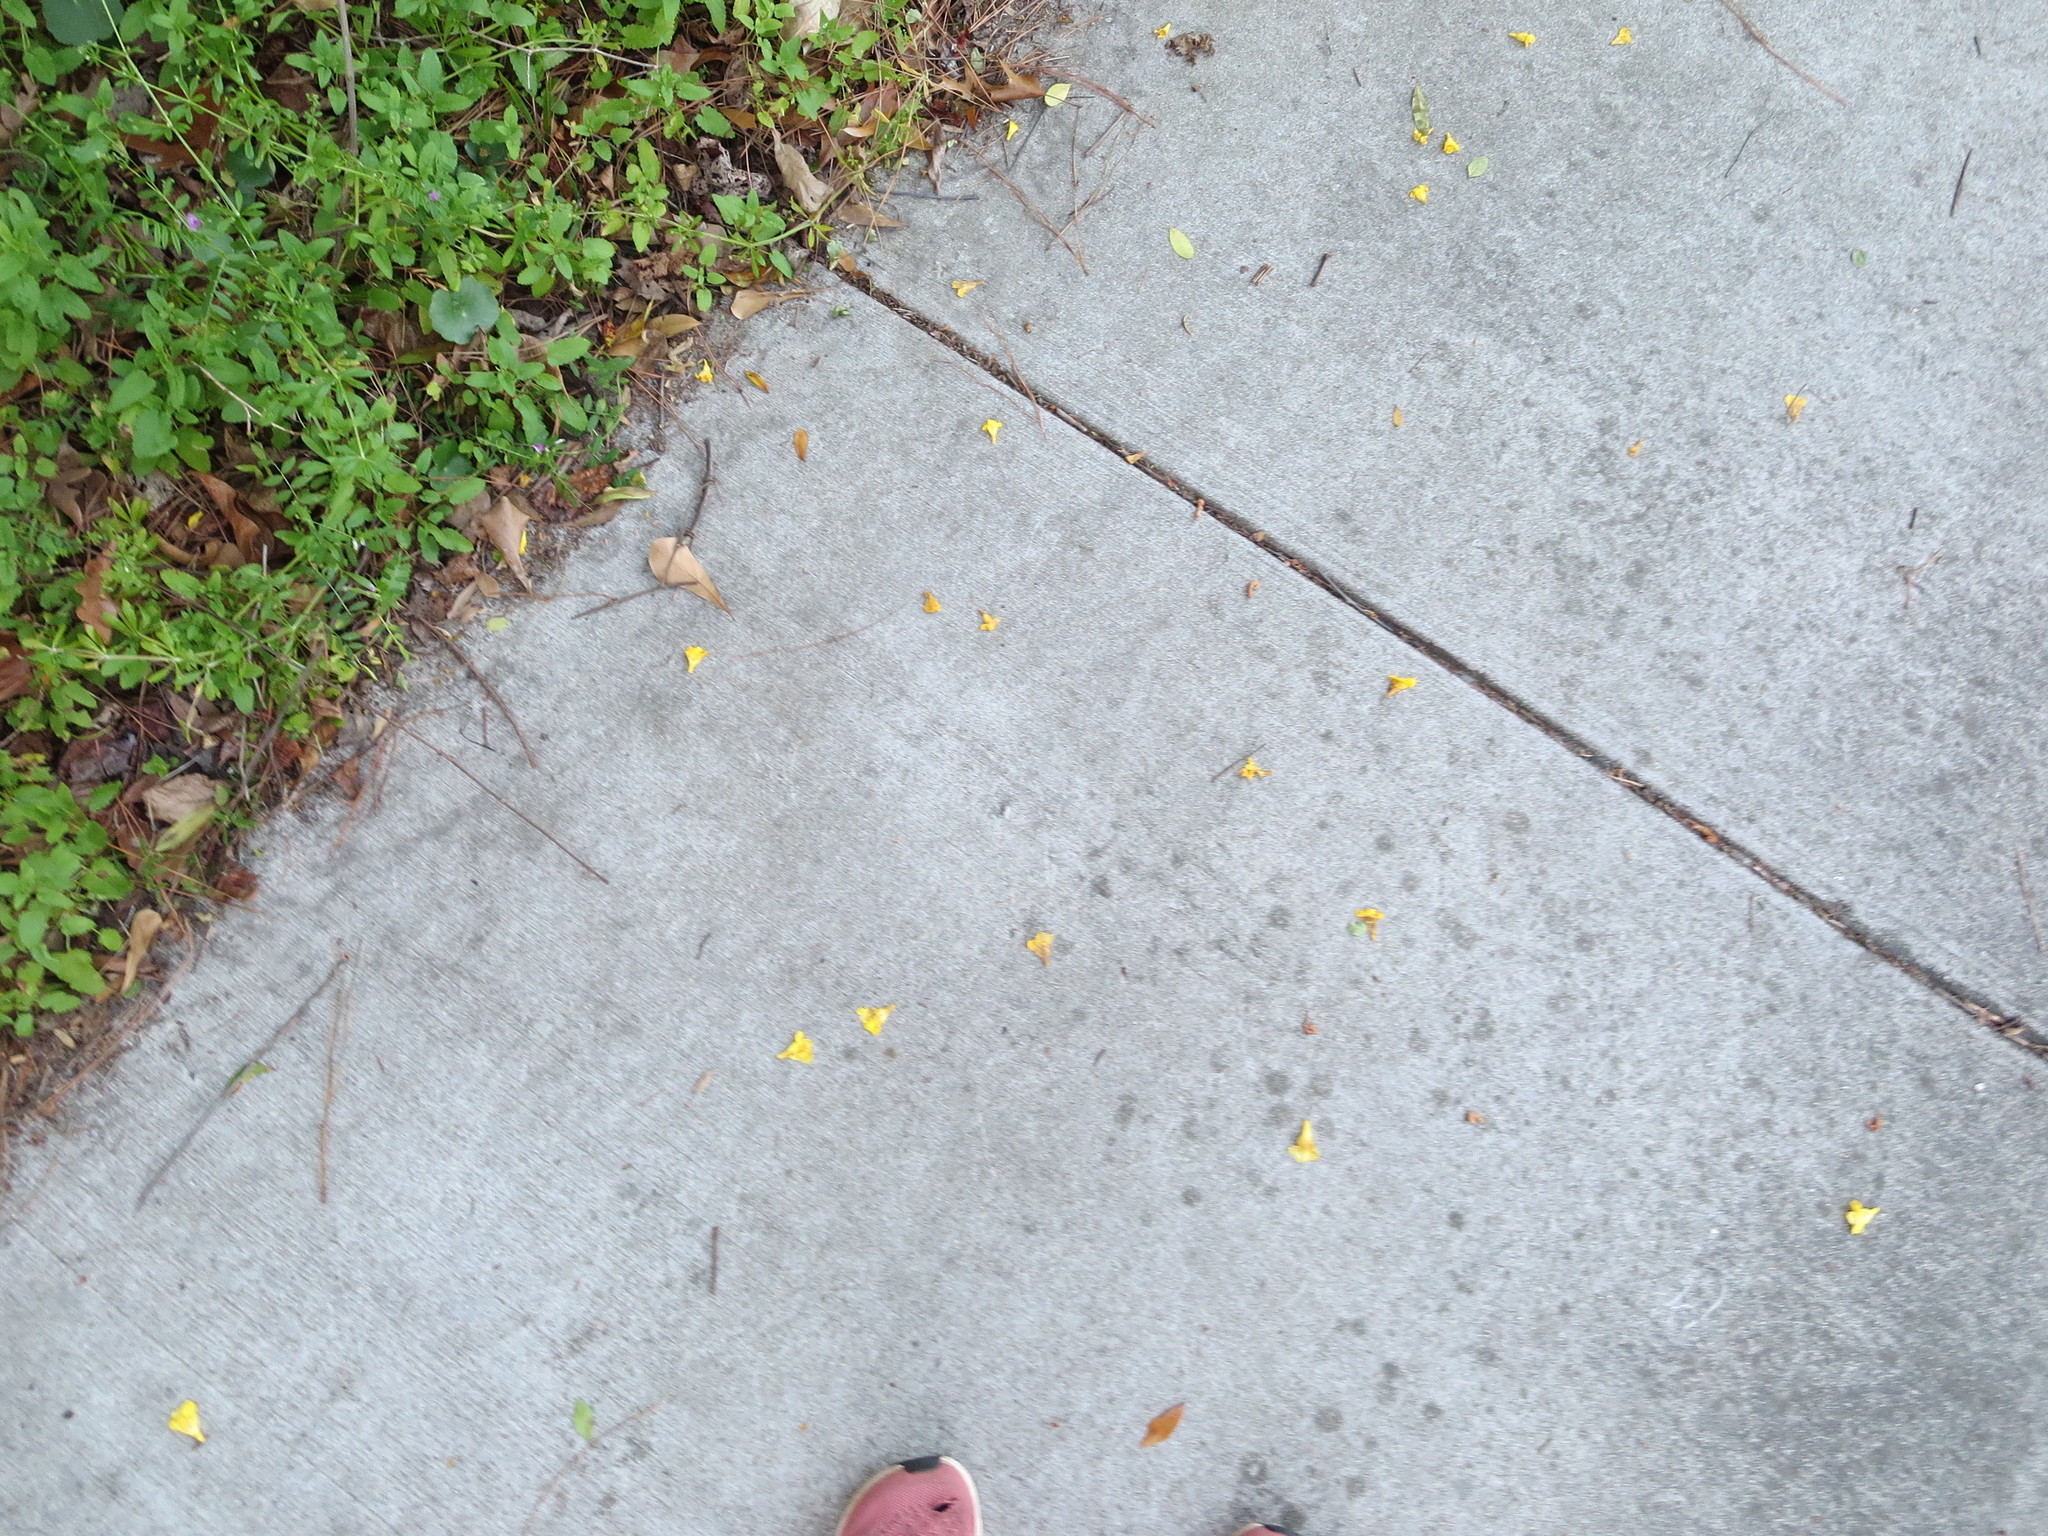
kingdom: Plantae
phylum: Tracheophyta
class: Magnoliopsida
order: Gentianales
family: Gelsemiaceae
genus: Gelsemium
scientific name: Gelsemium sempervirens
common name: Carolina-jasmine
